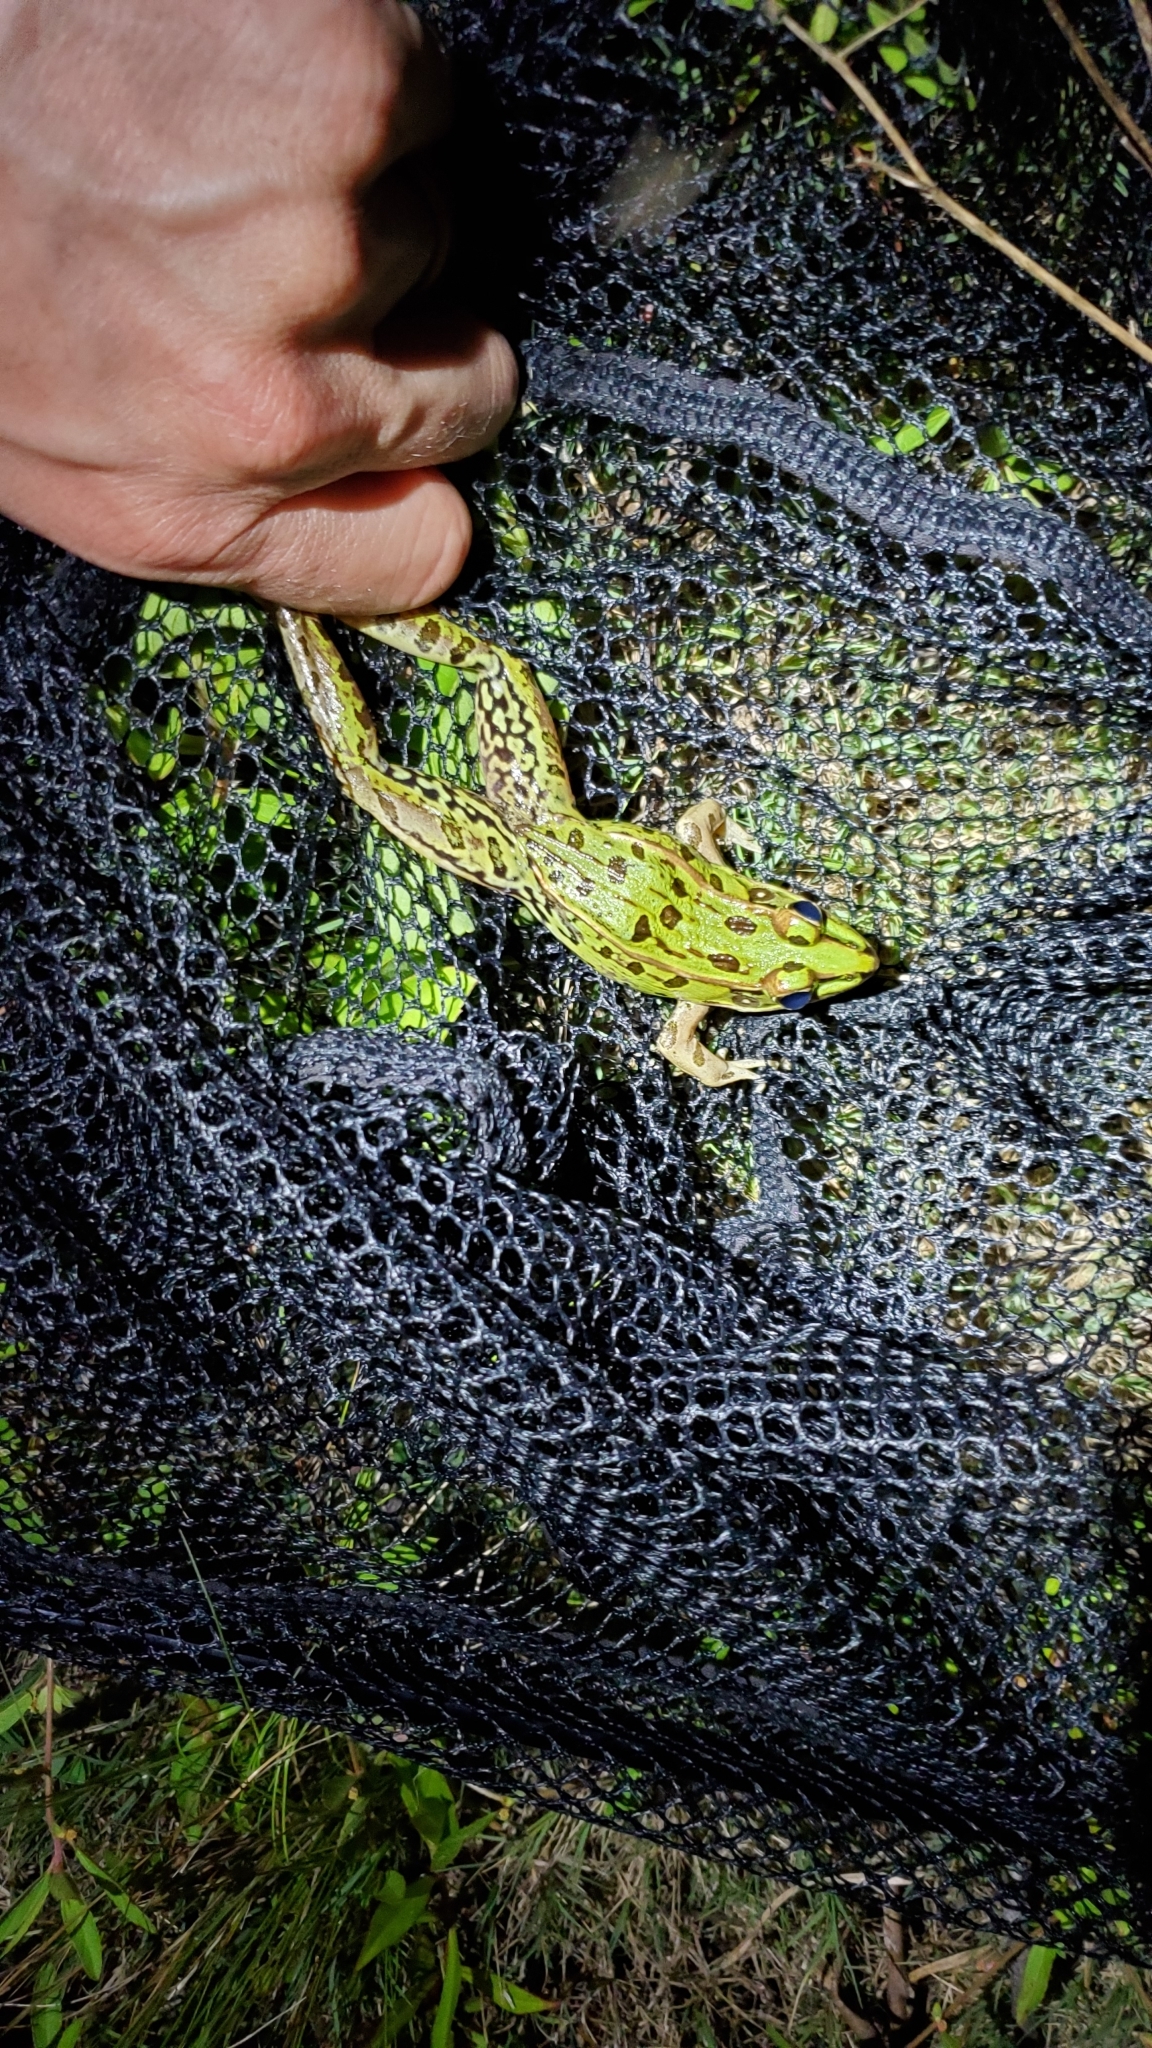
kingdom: Animalia
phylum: Chordata
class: Amphibia
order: Anura
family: Ranidae
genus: Lithobates
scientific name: Lithobates sphenocephalus
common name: Southern leopard frog
